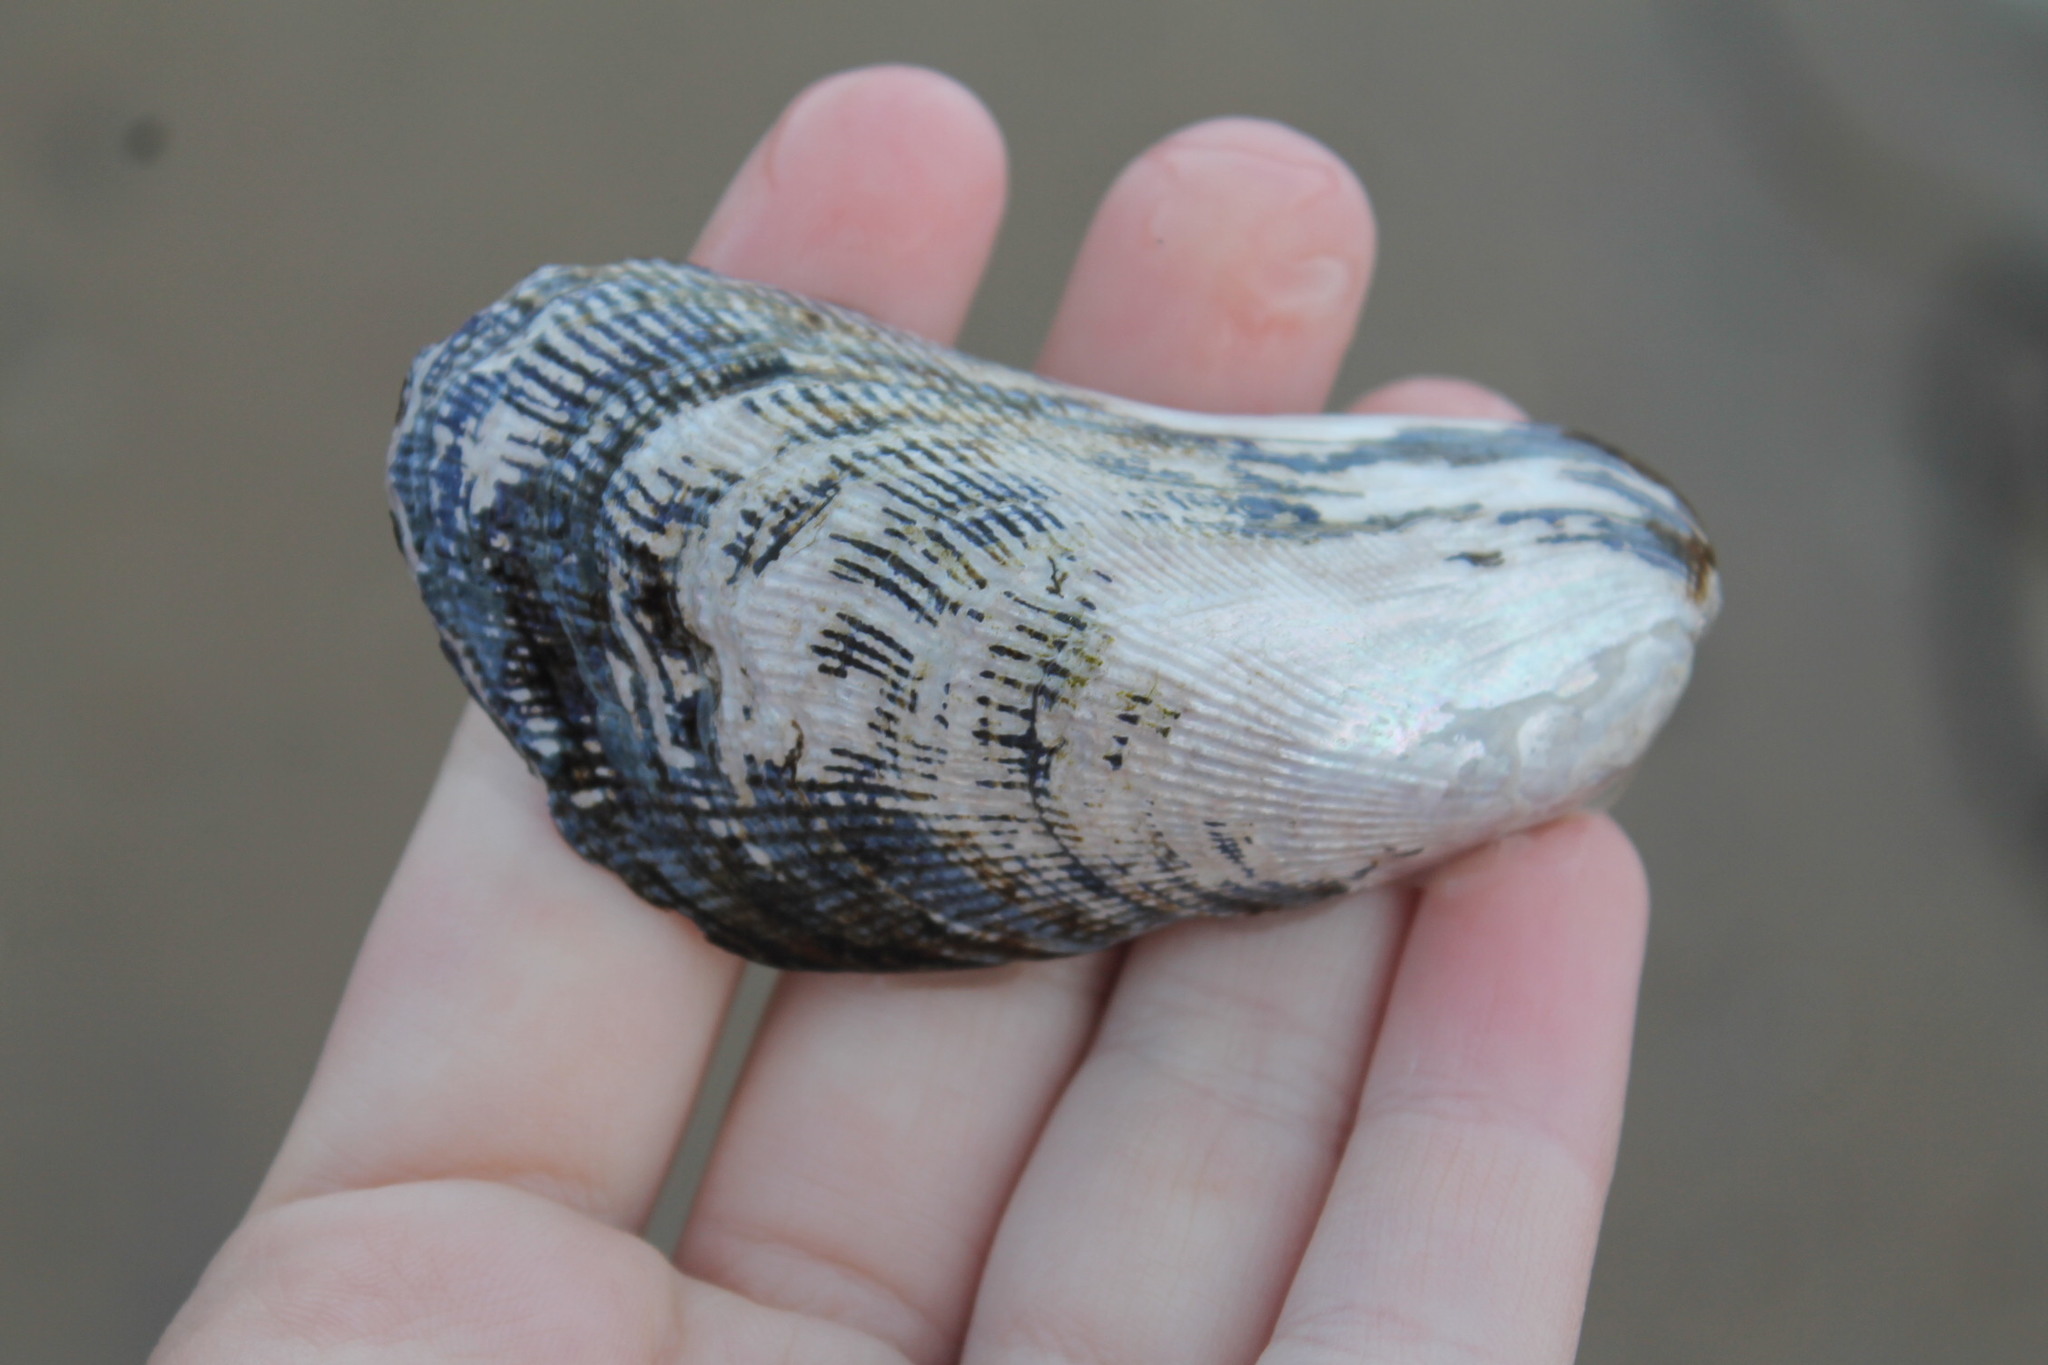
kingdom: Animalia
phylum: Mollusca
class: Bivalvia
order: Mytilida
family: Mytilidae
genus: Geukensia
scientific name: Geukensia demissa
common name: Ribbed mussel
